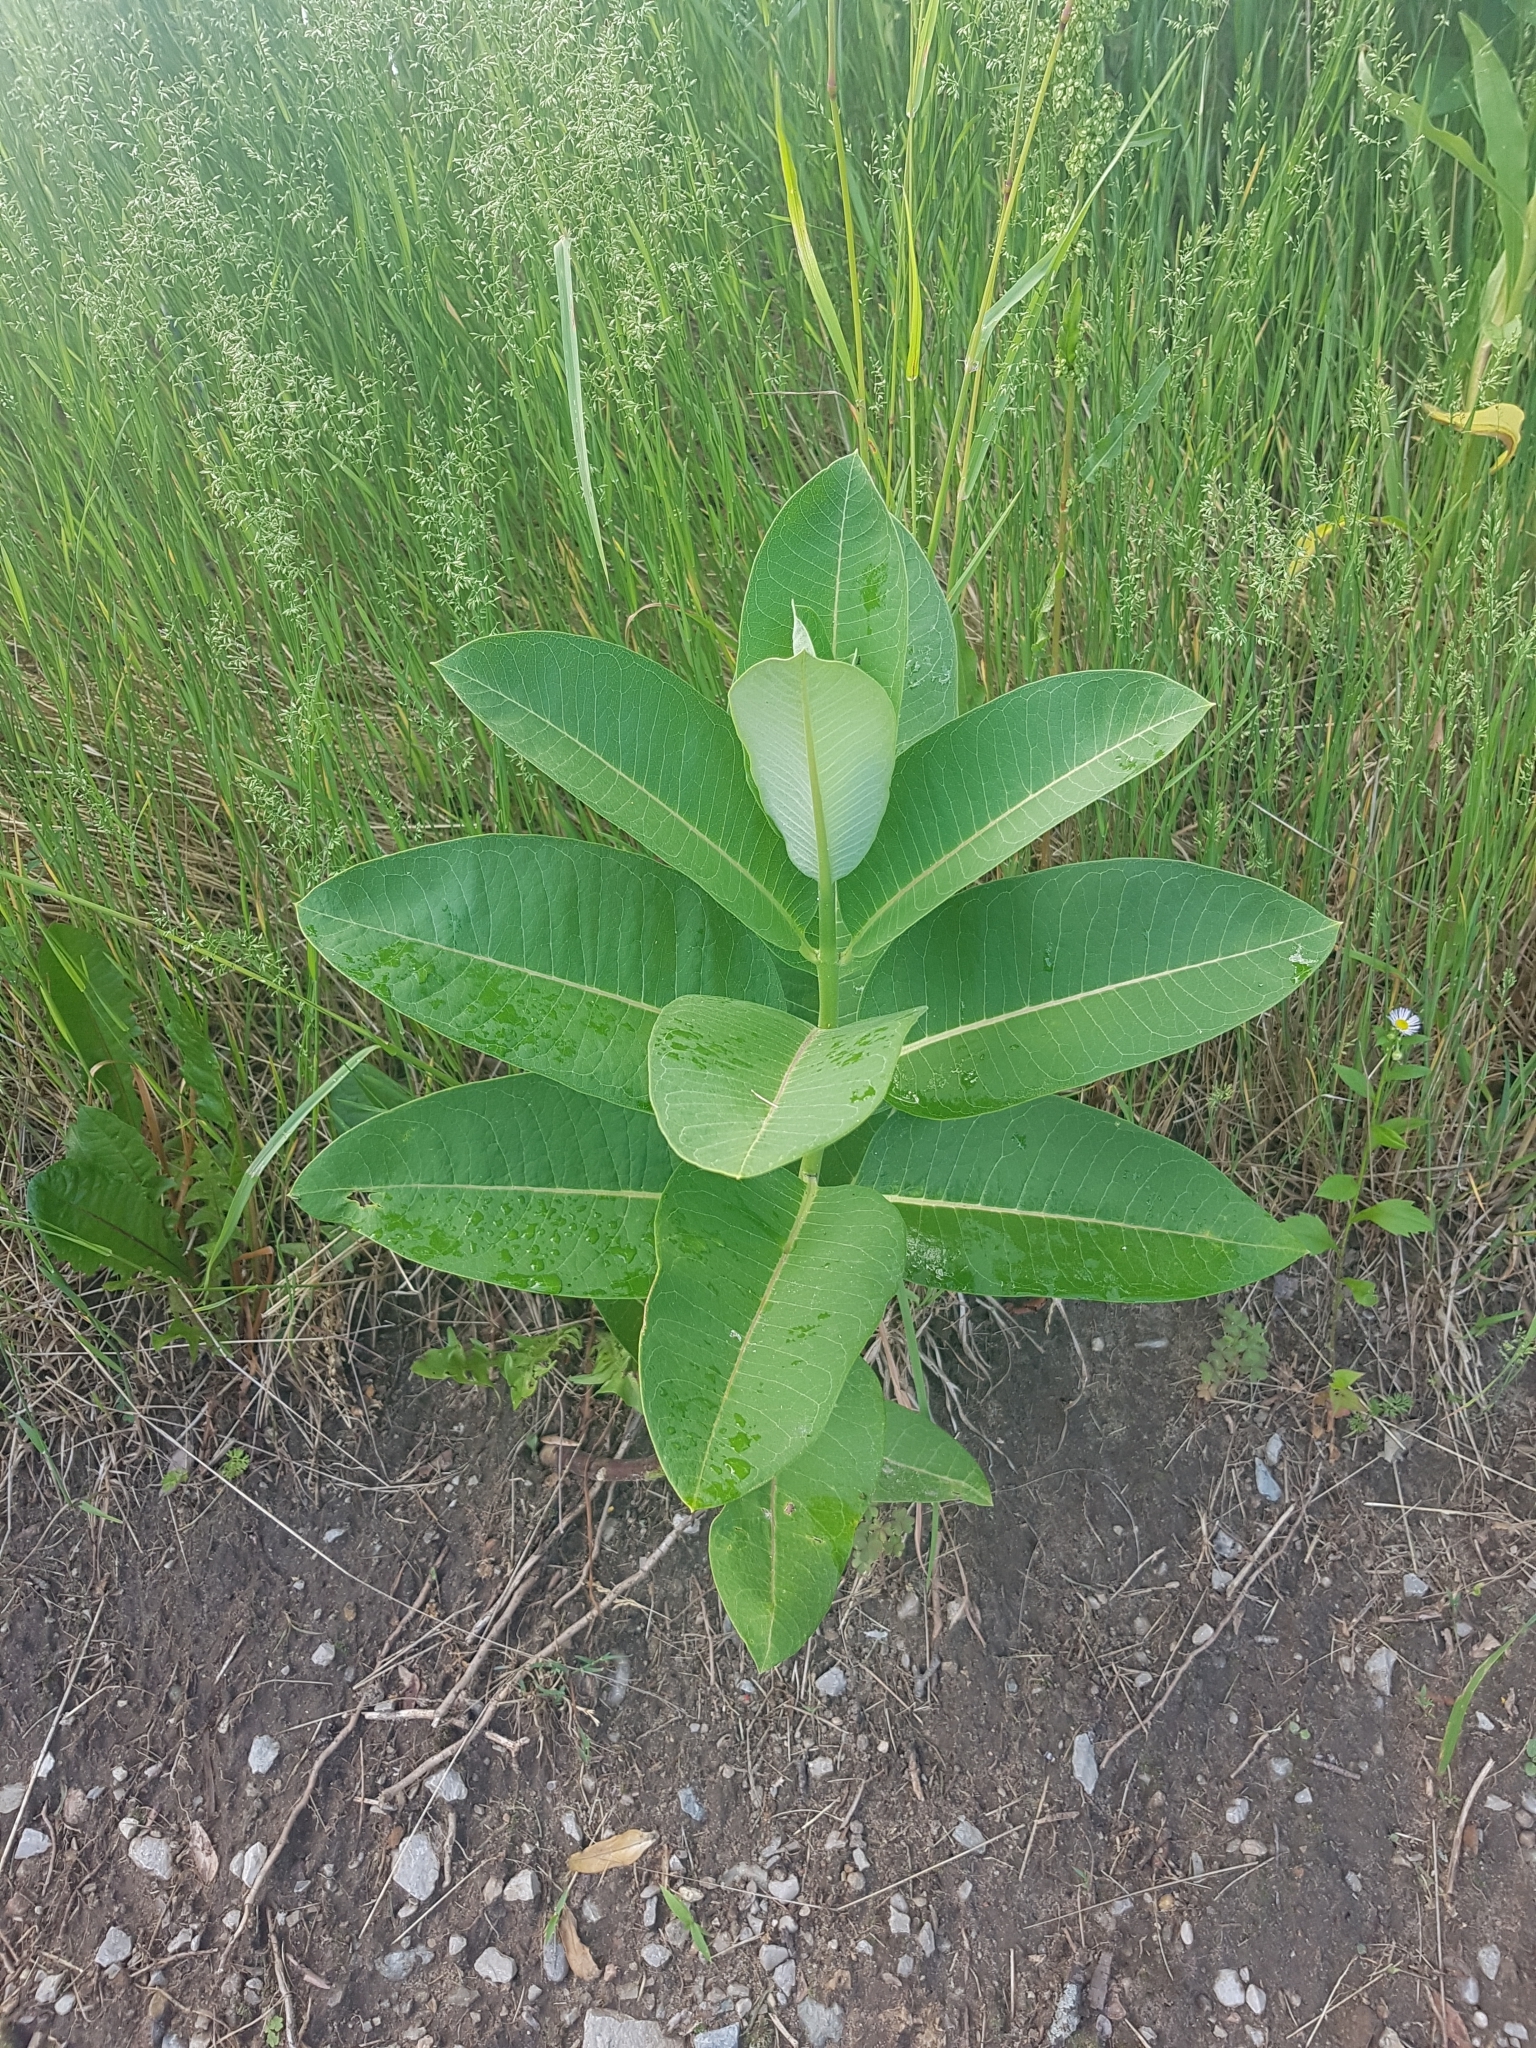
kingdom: Plantae
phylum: Tracheophyta
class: Magnoliopsida
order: Gentianales
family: Apocynaceae
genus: Asclepias
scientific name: Asclepias syriaca
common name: Common milkweed
